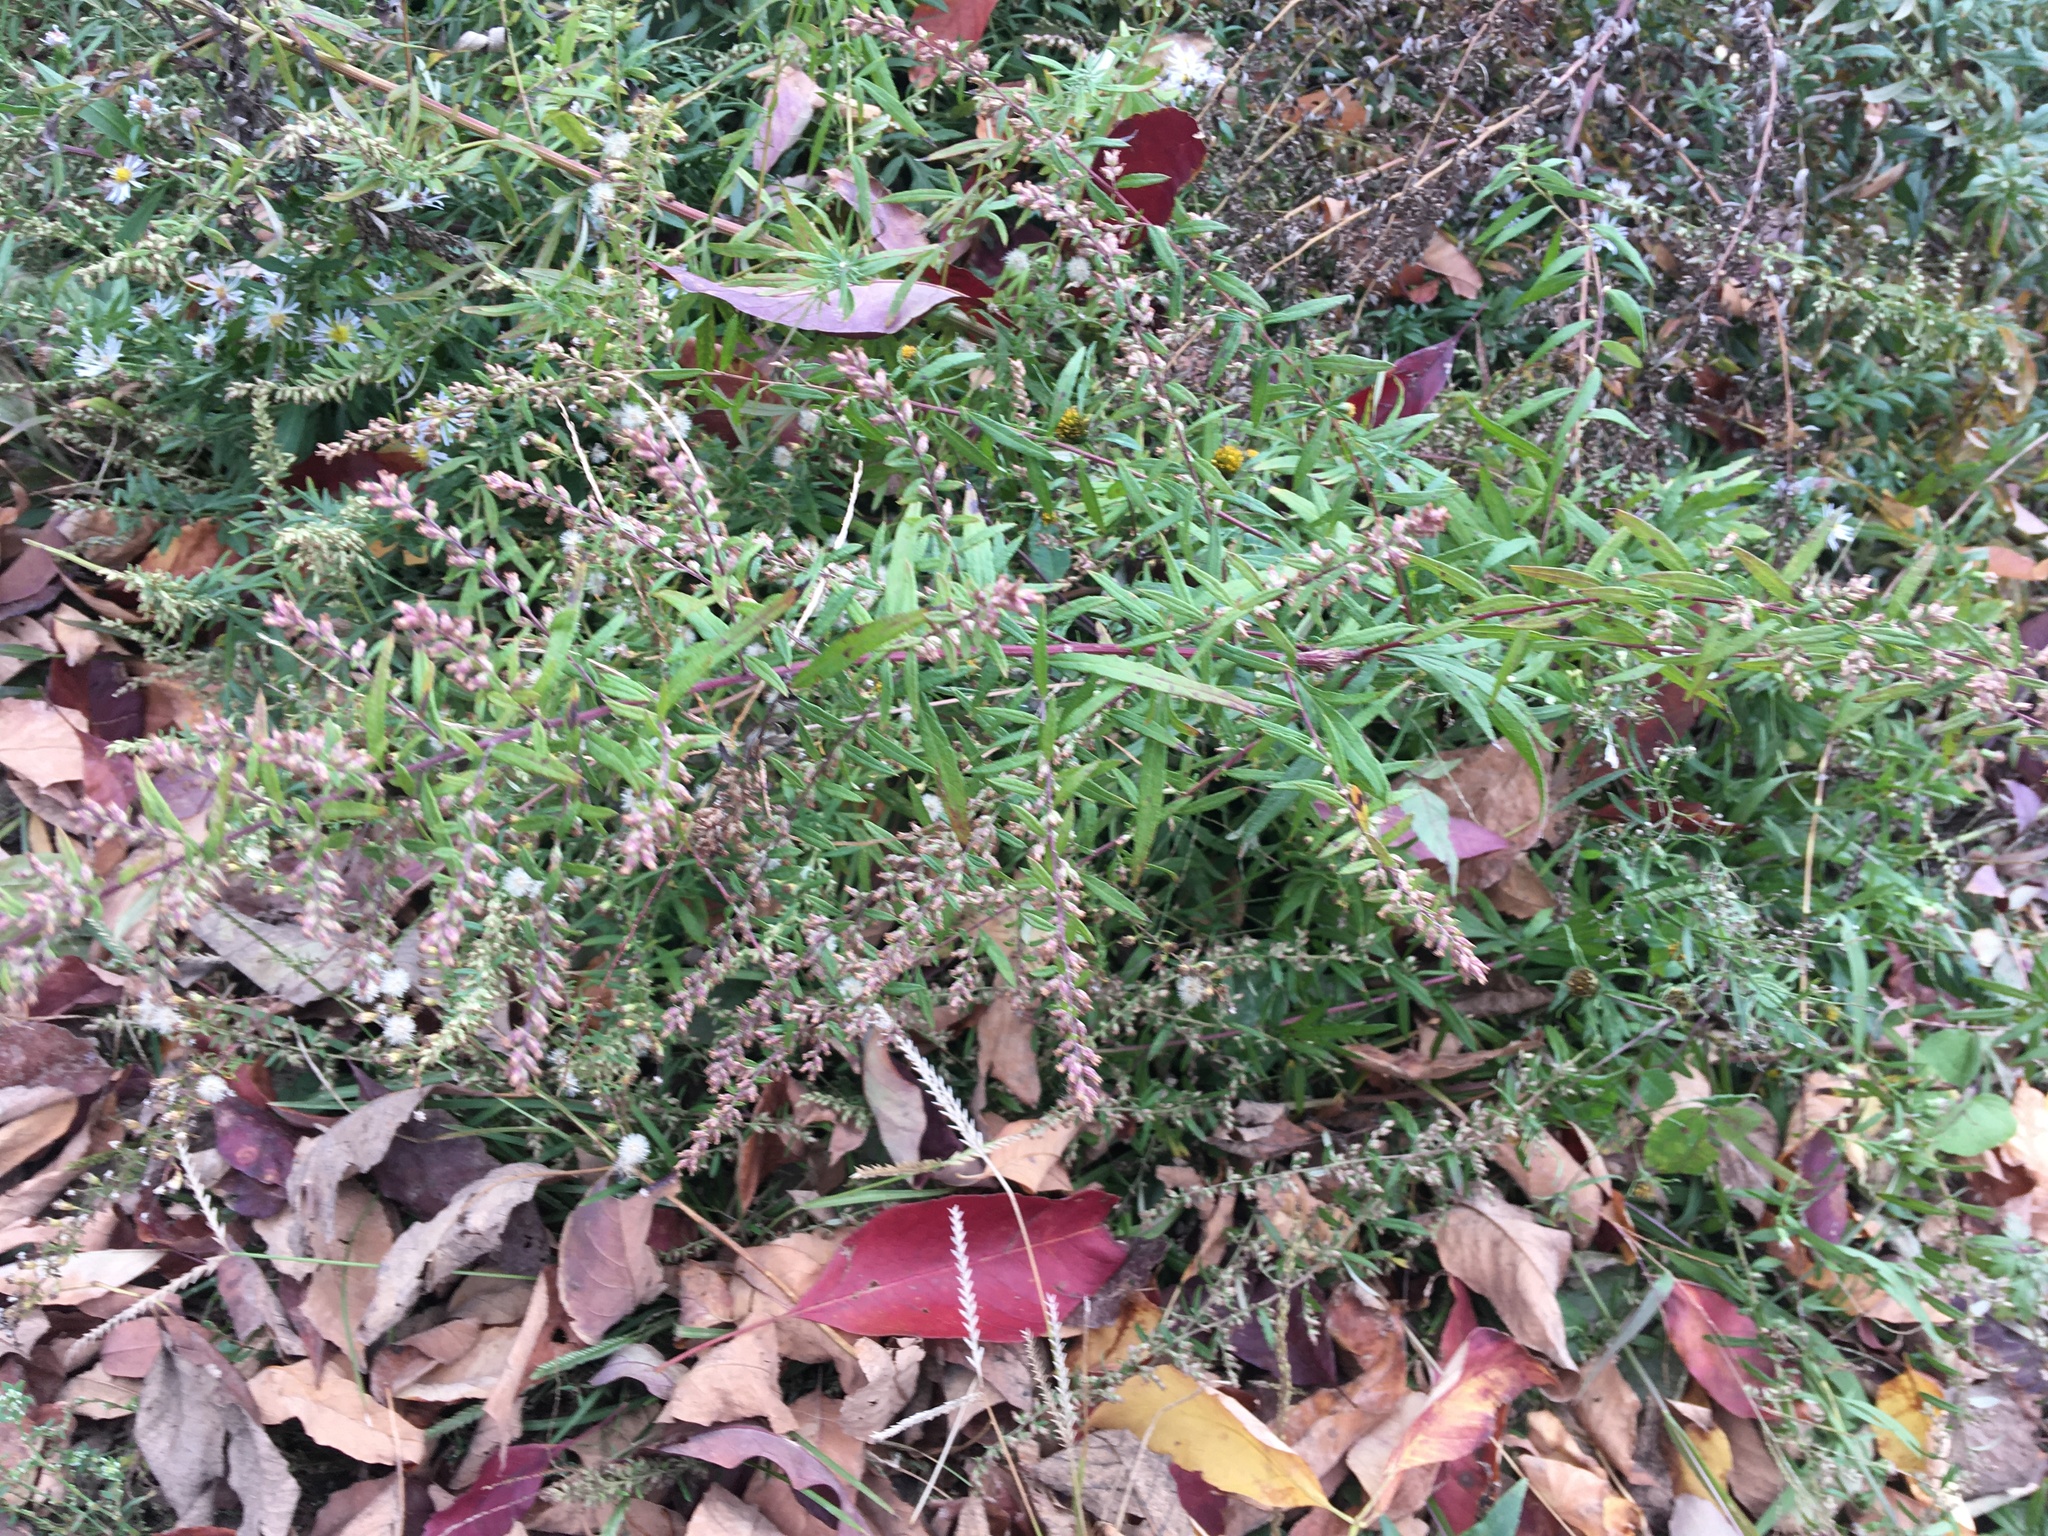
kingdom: Plantae
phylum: Tracheophyta
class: Magnoliopsida
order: Asterales
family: Asteraceae
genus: Artemisia
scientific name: Artemisia vulgaris
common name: Mugwort
